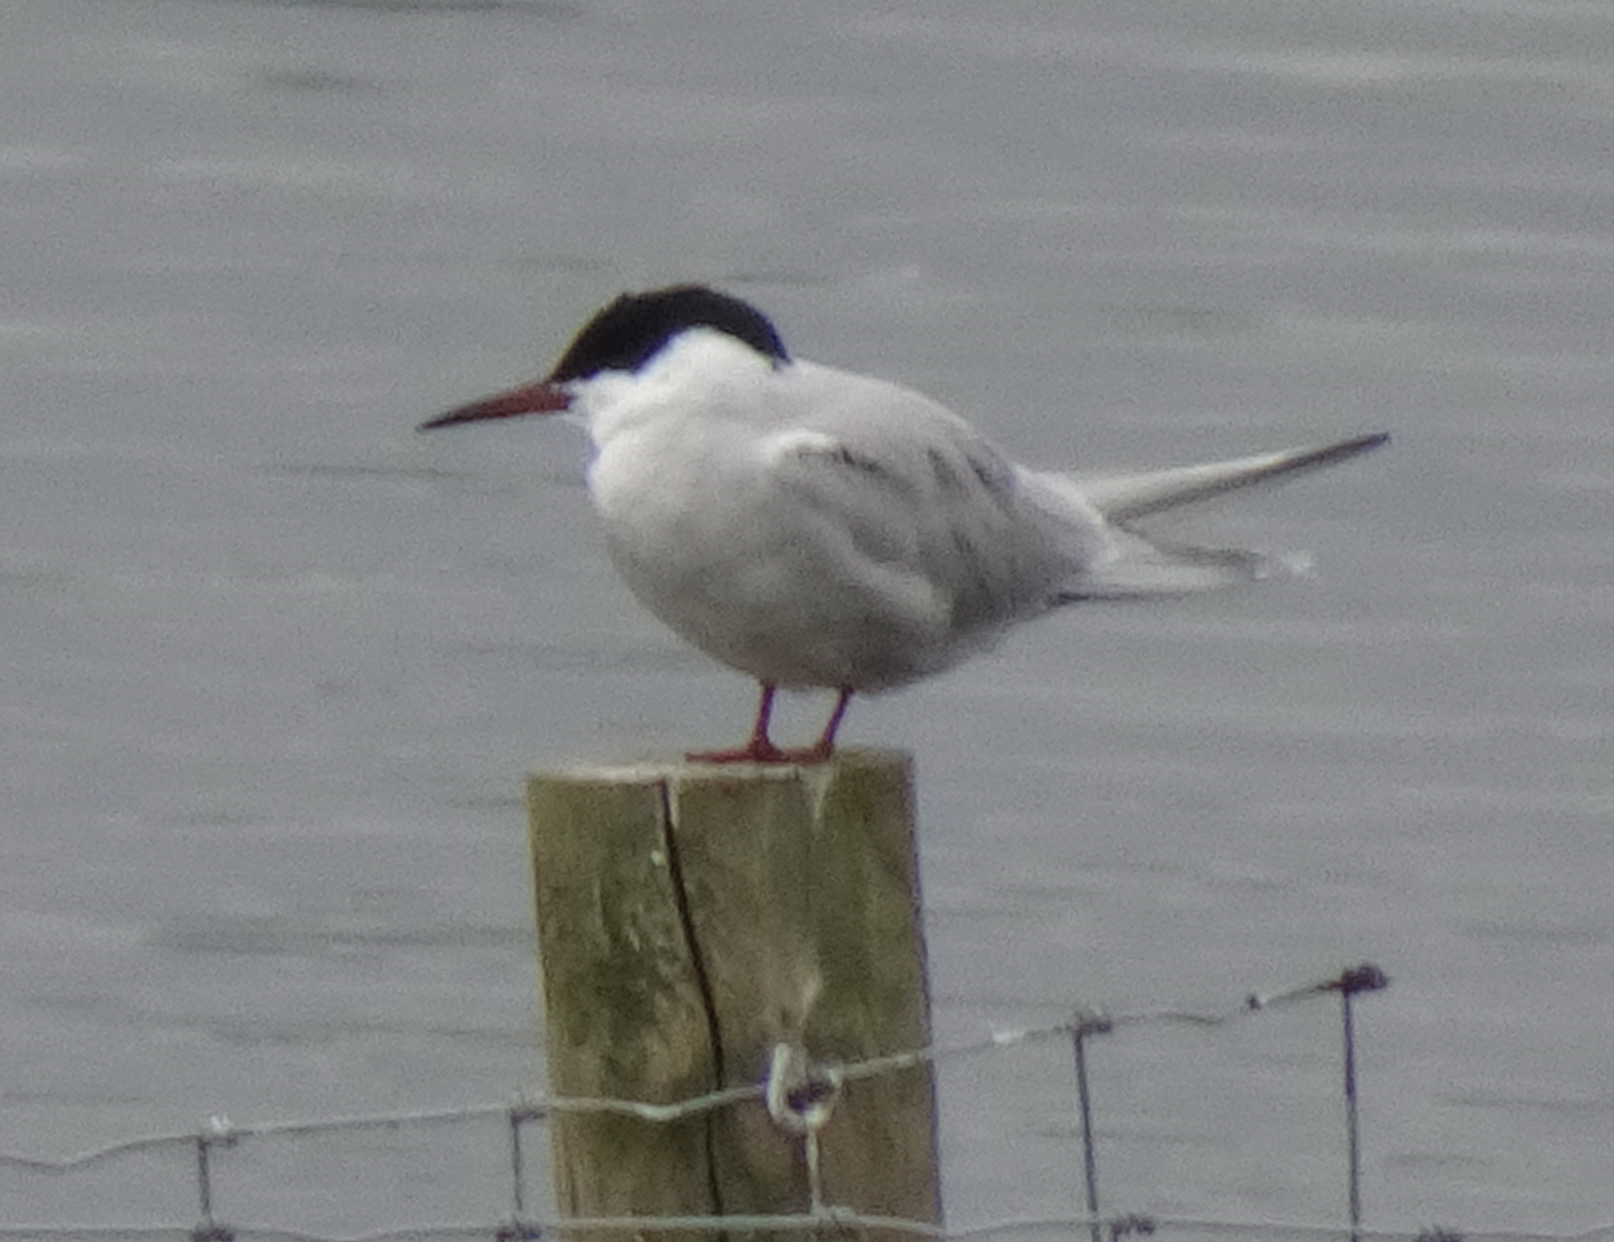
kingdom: Animalia
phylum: Chordata
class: Aves
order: Charadriiformes
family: Laridae
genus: Sterna
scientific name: Sterna hirundo
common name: Common tern
